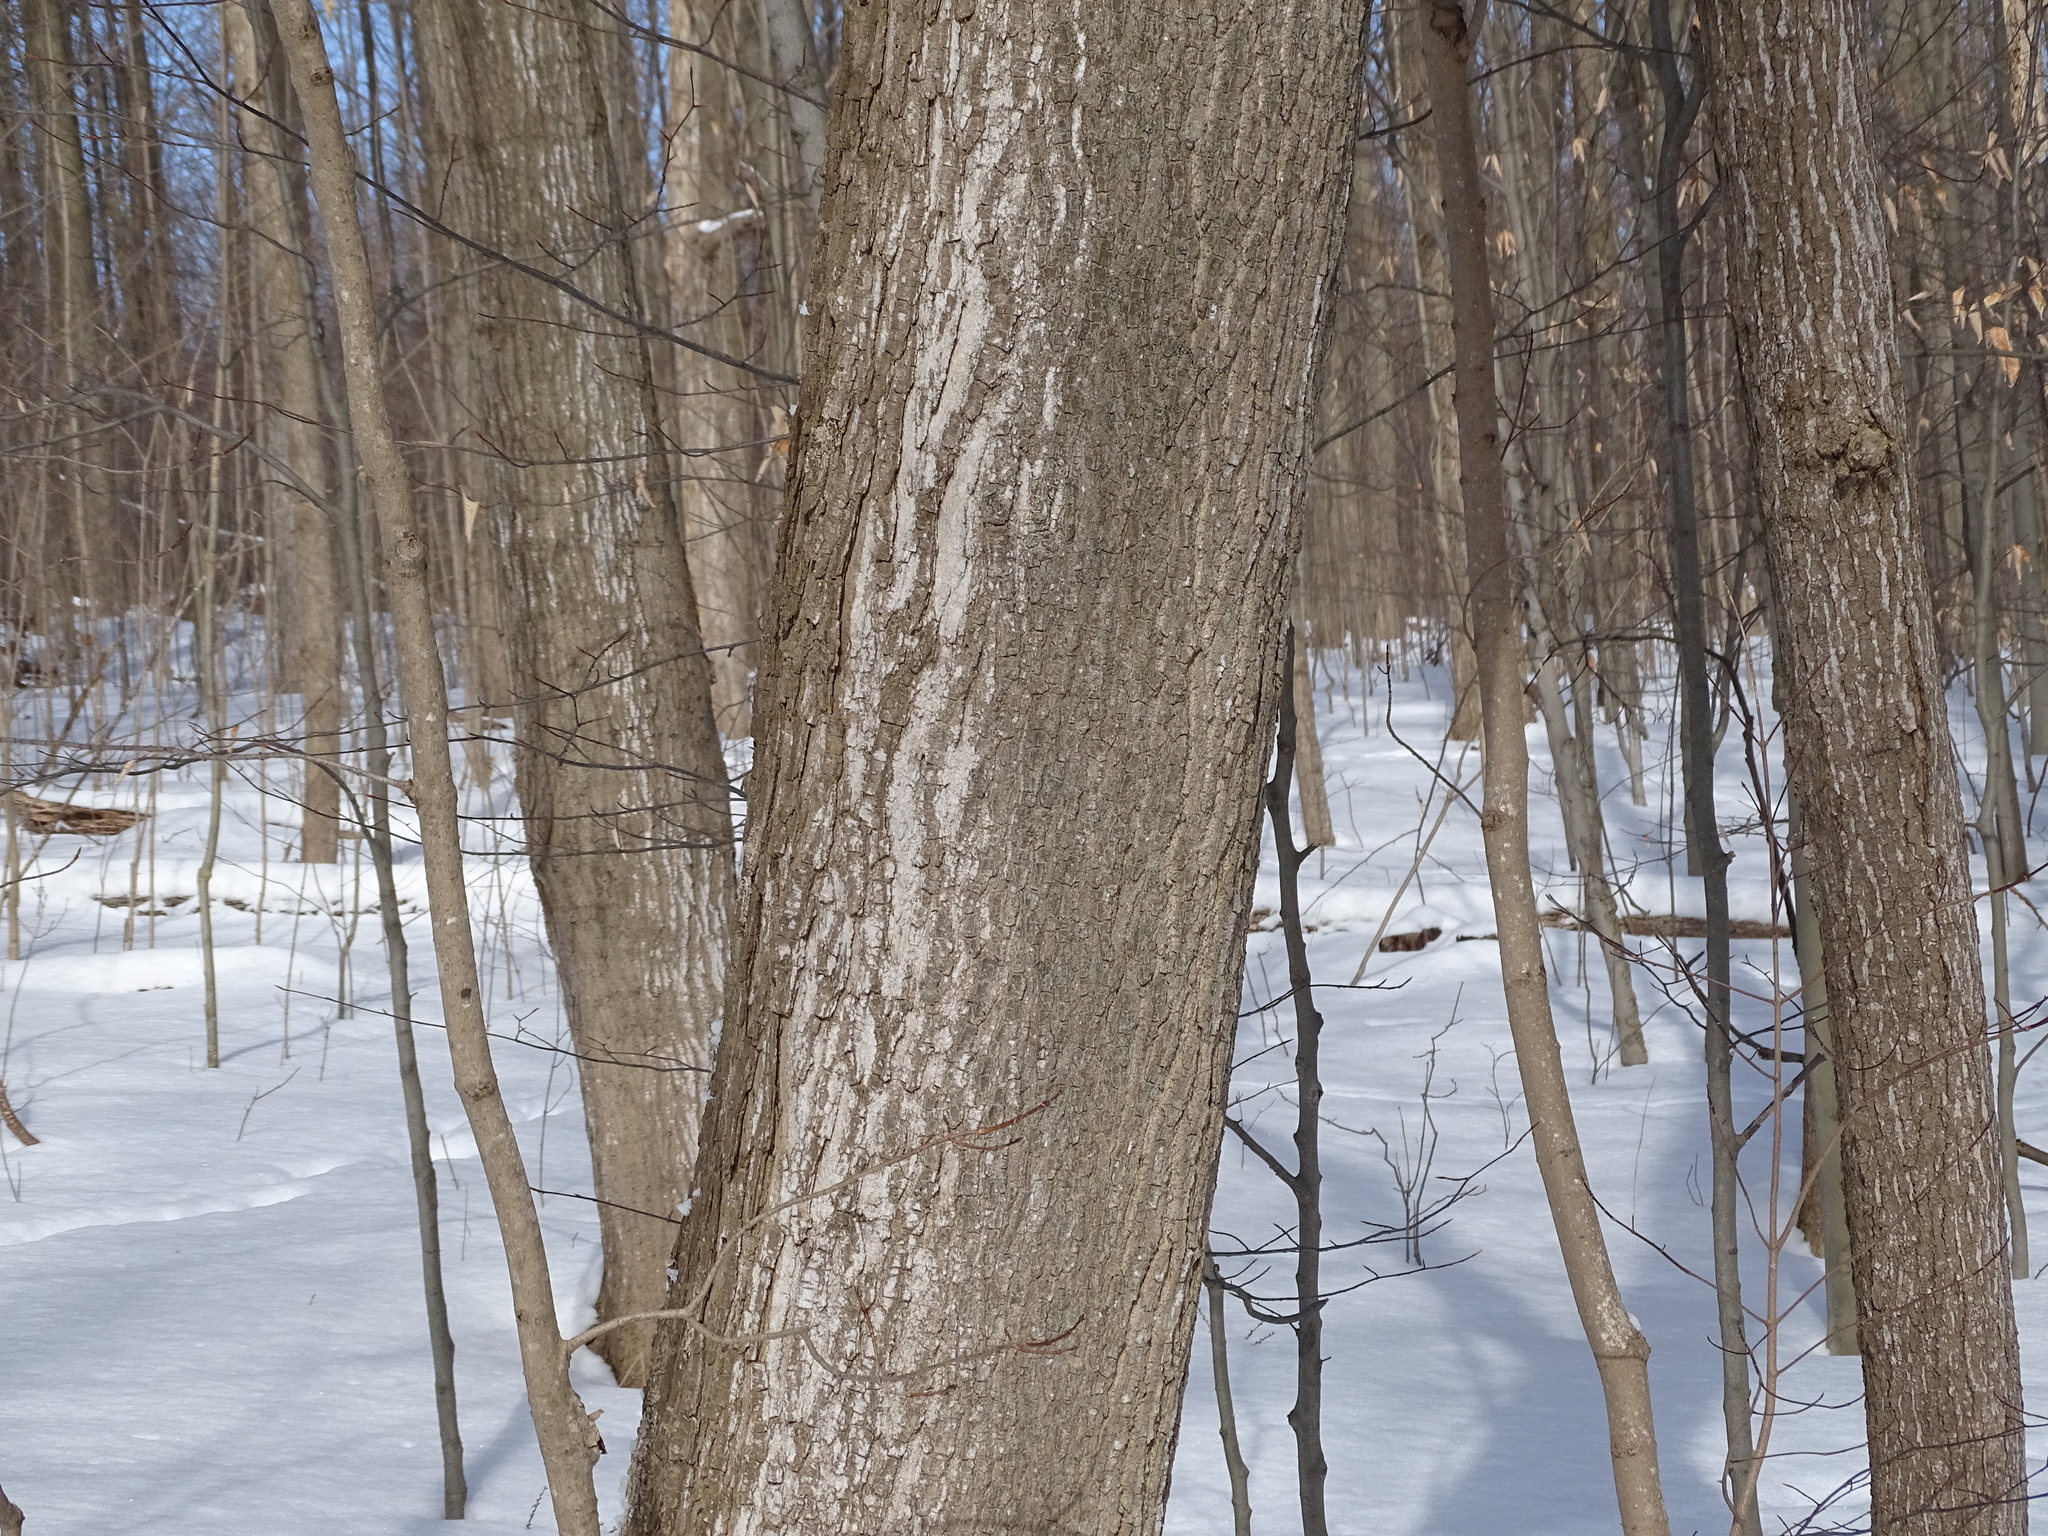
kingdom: Plantae
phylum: Tracheophyta
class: Magnoliopsida
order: Sapindales
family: Sapindaceae
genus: Acer
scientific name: Acer saccharum
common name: Sugar maple
